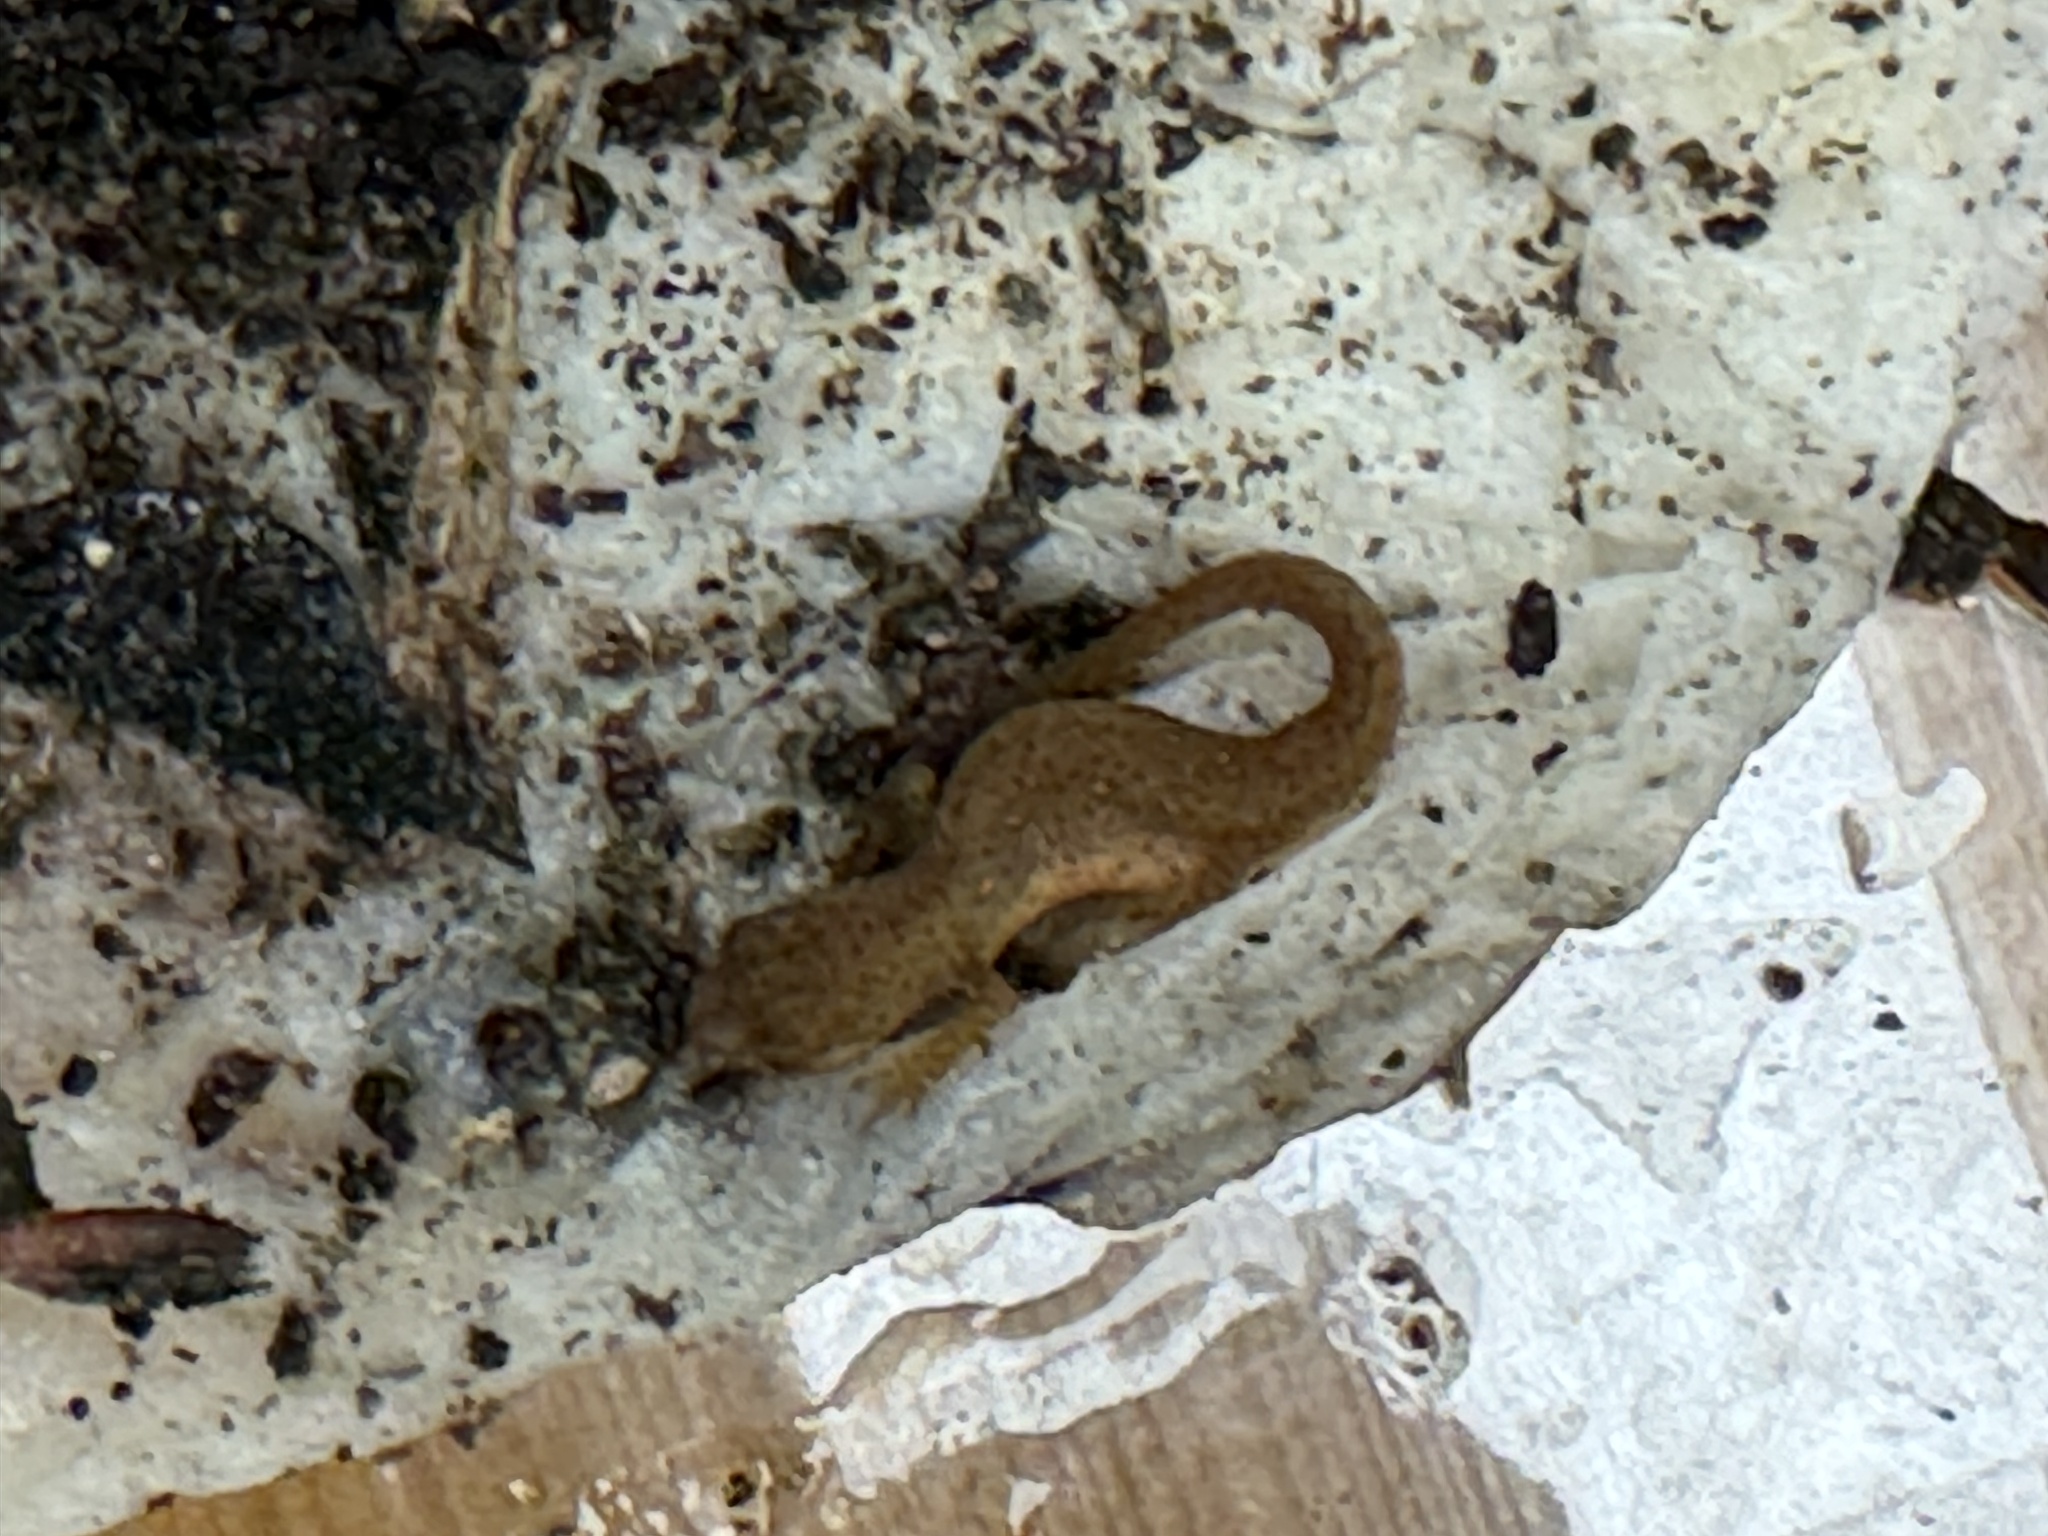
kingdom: Animalia
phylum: Chordata
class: Amphibia
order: Caudata
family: Salamandridae
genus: Notophthalmus
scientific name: Notophthalmus viridescens
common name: Eastern newt
